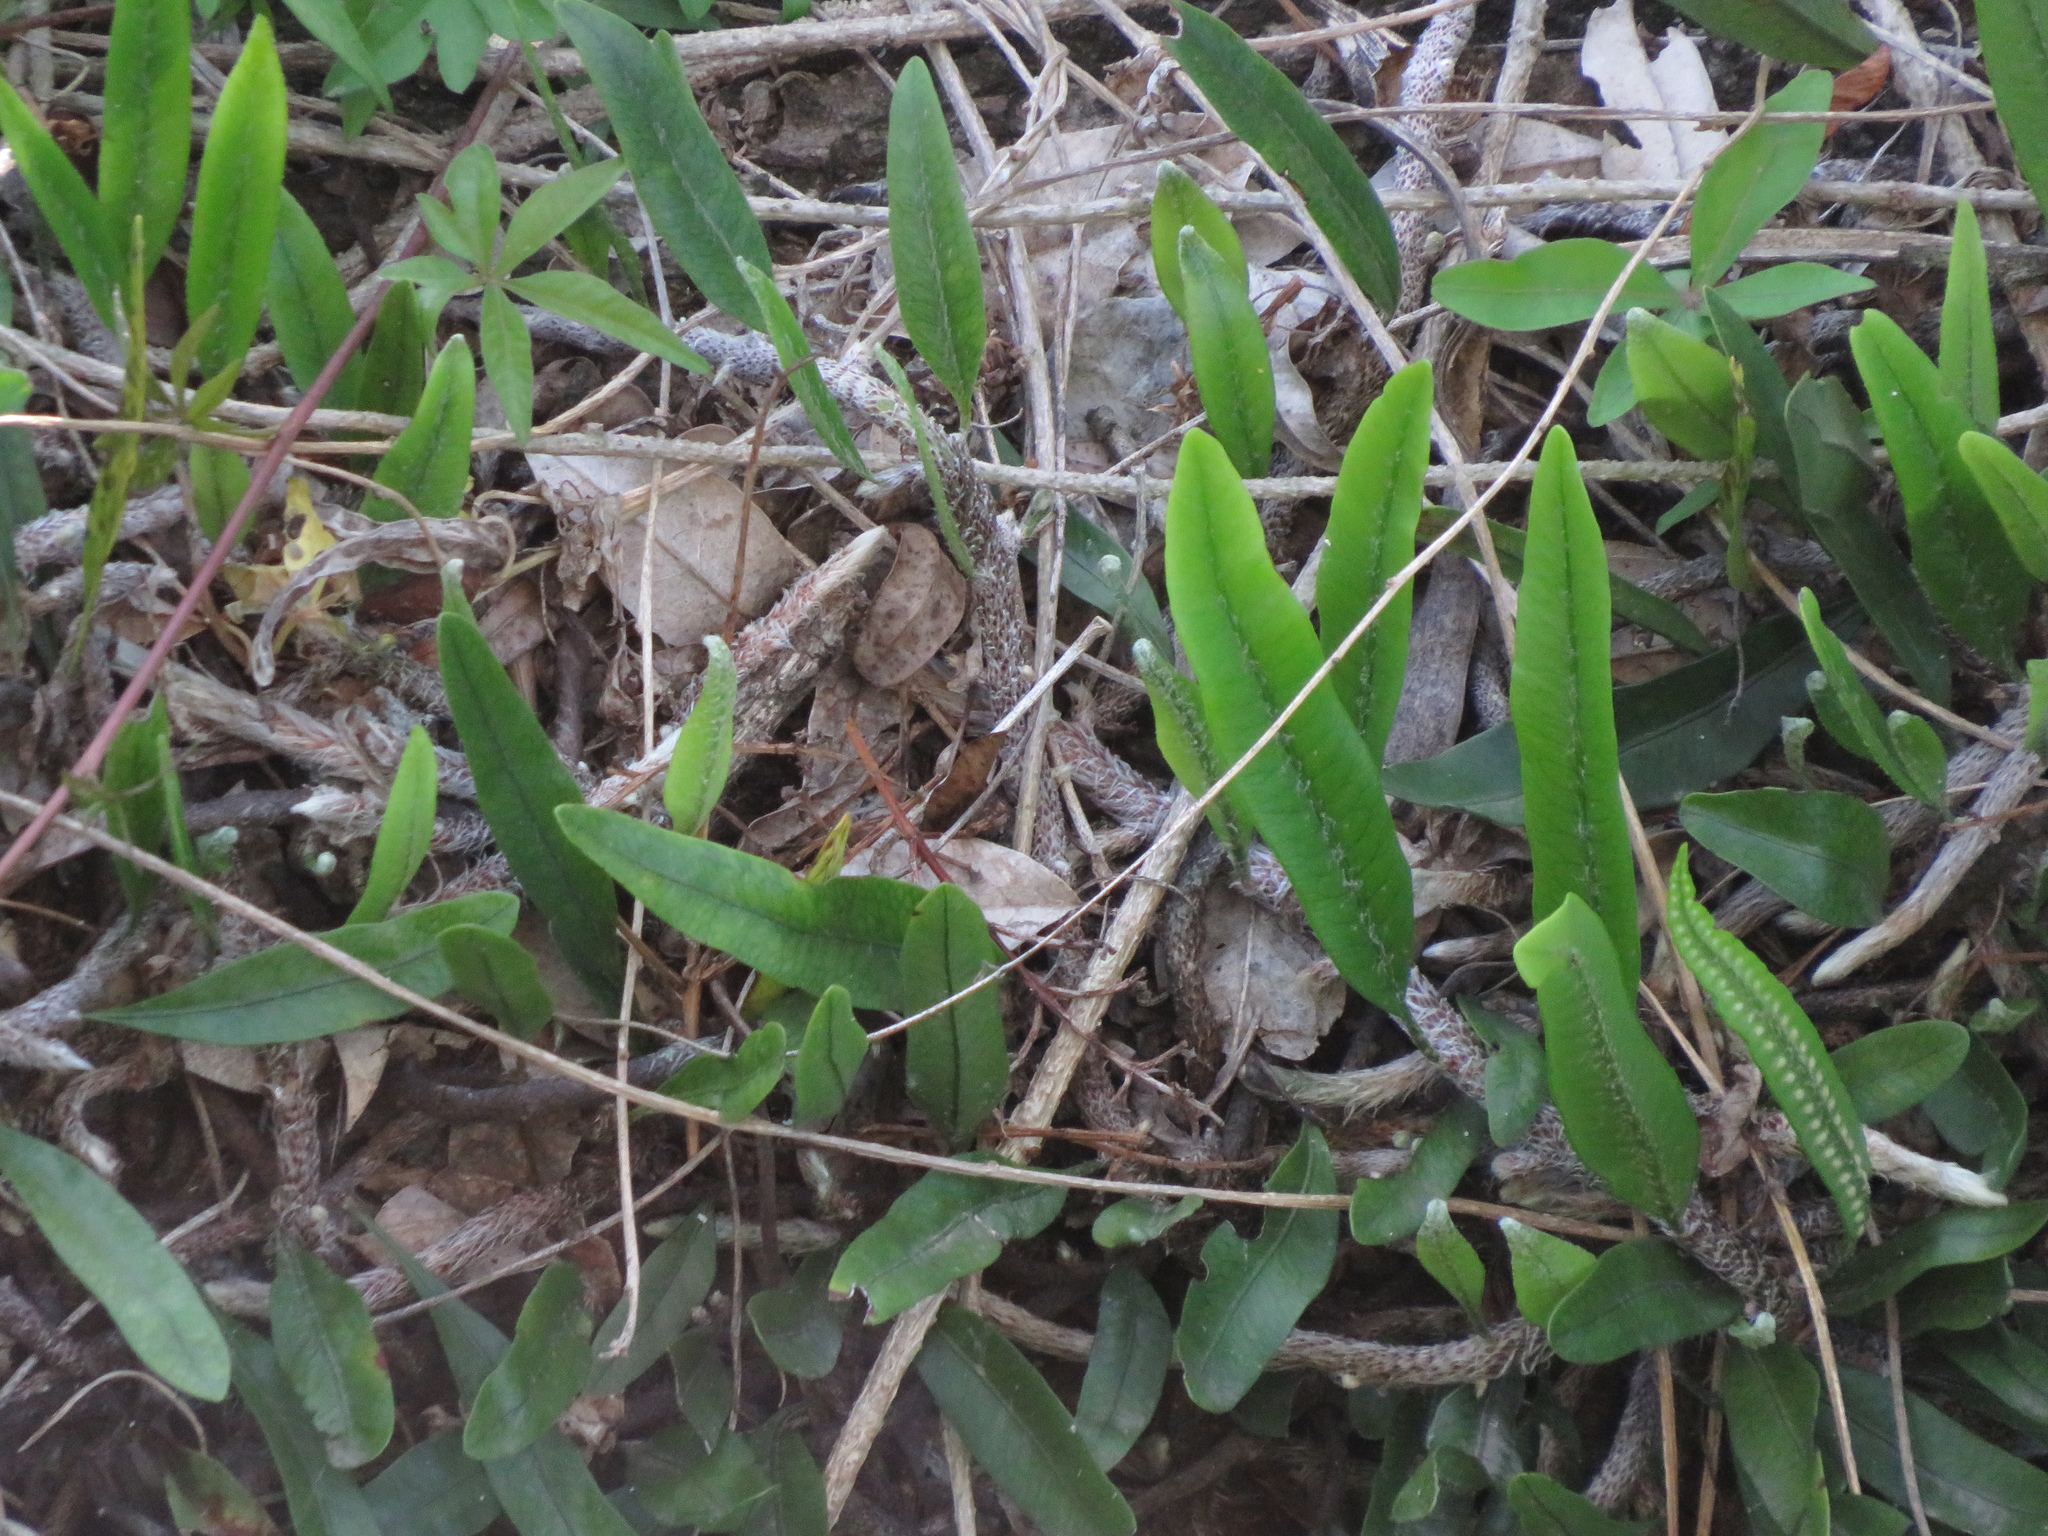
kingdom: Plantae
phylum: Tracheophyta
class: Polypodiopsida
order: Polypodiales
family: Polypodiaceae
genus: Microgramma
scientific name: Microgramma mortoniana
